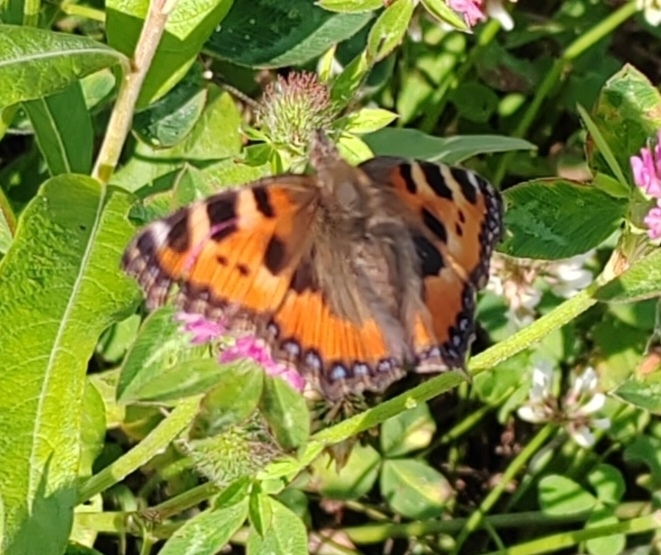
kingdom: Animalia
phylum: Arthropoda
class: Insecta
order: Lepidoptera
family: Nymphalidae
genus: Aglais
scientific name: Aglais urticae
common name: Small tortoiseshell
